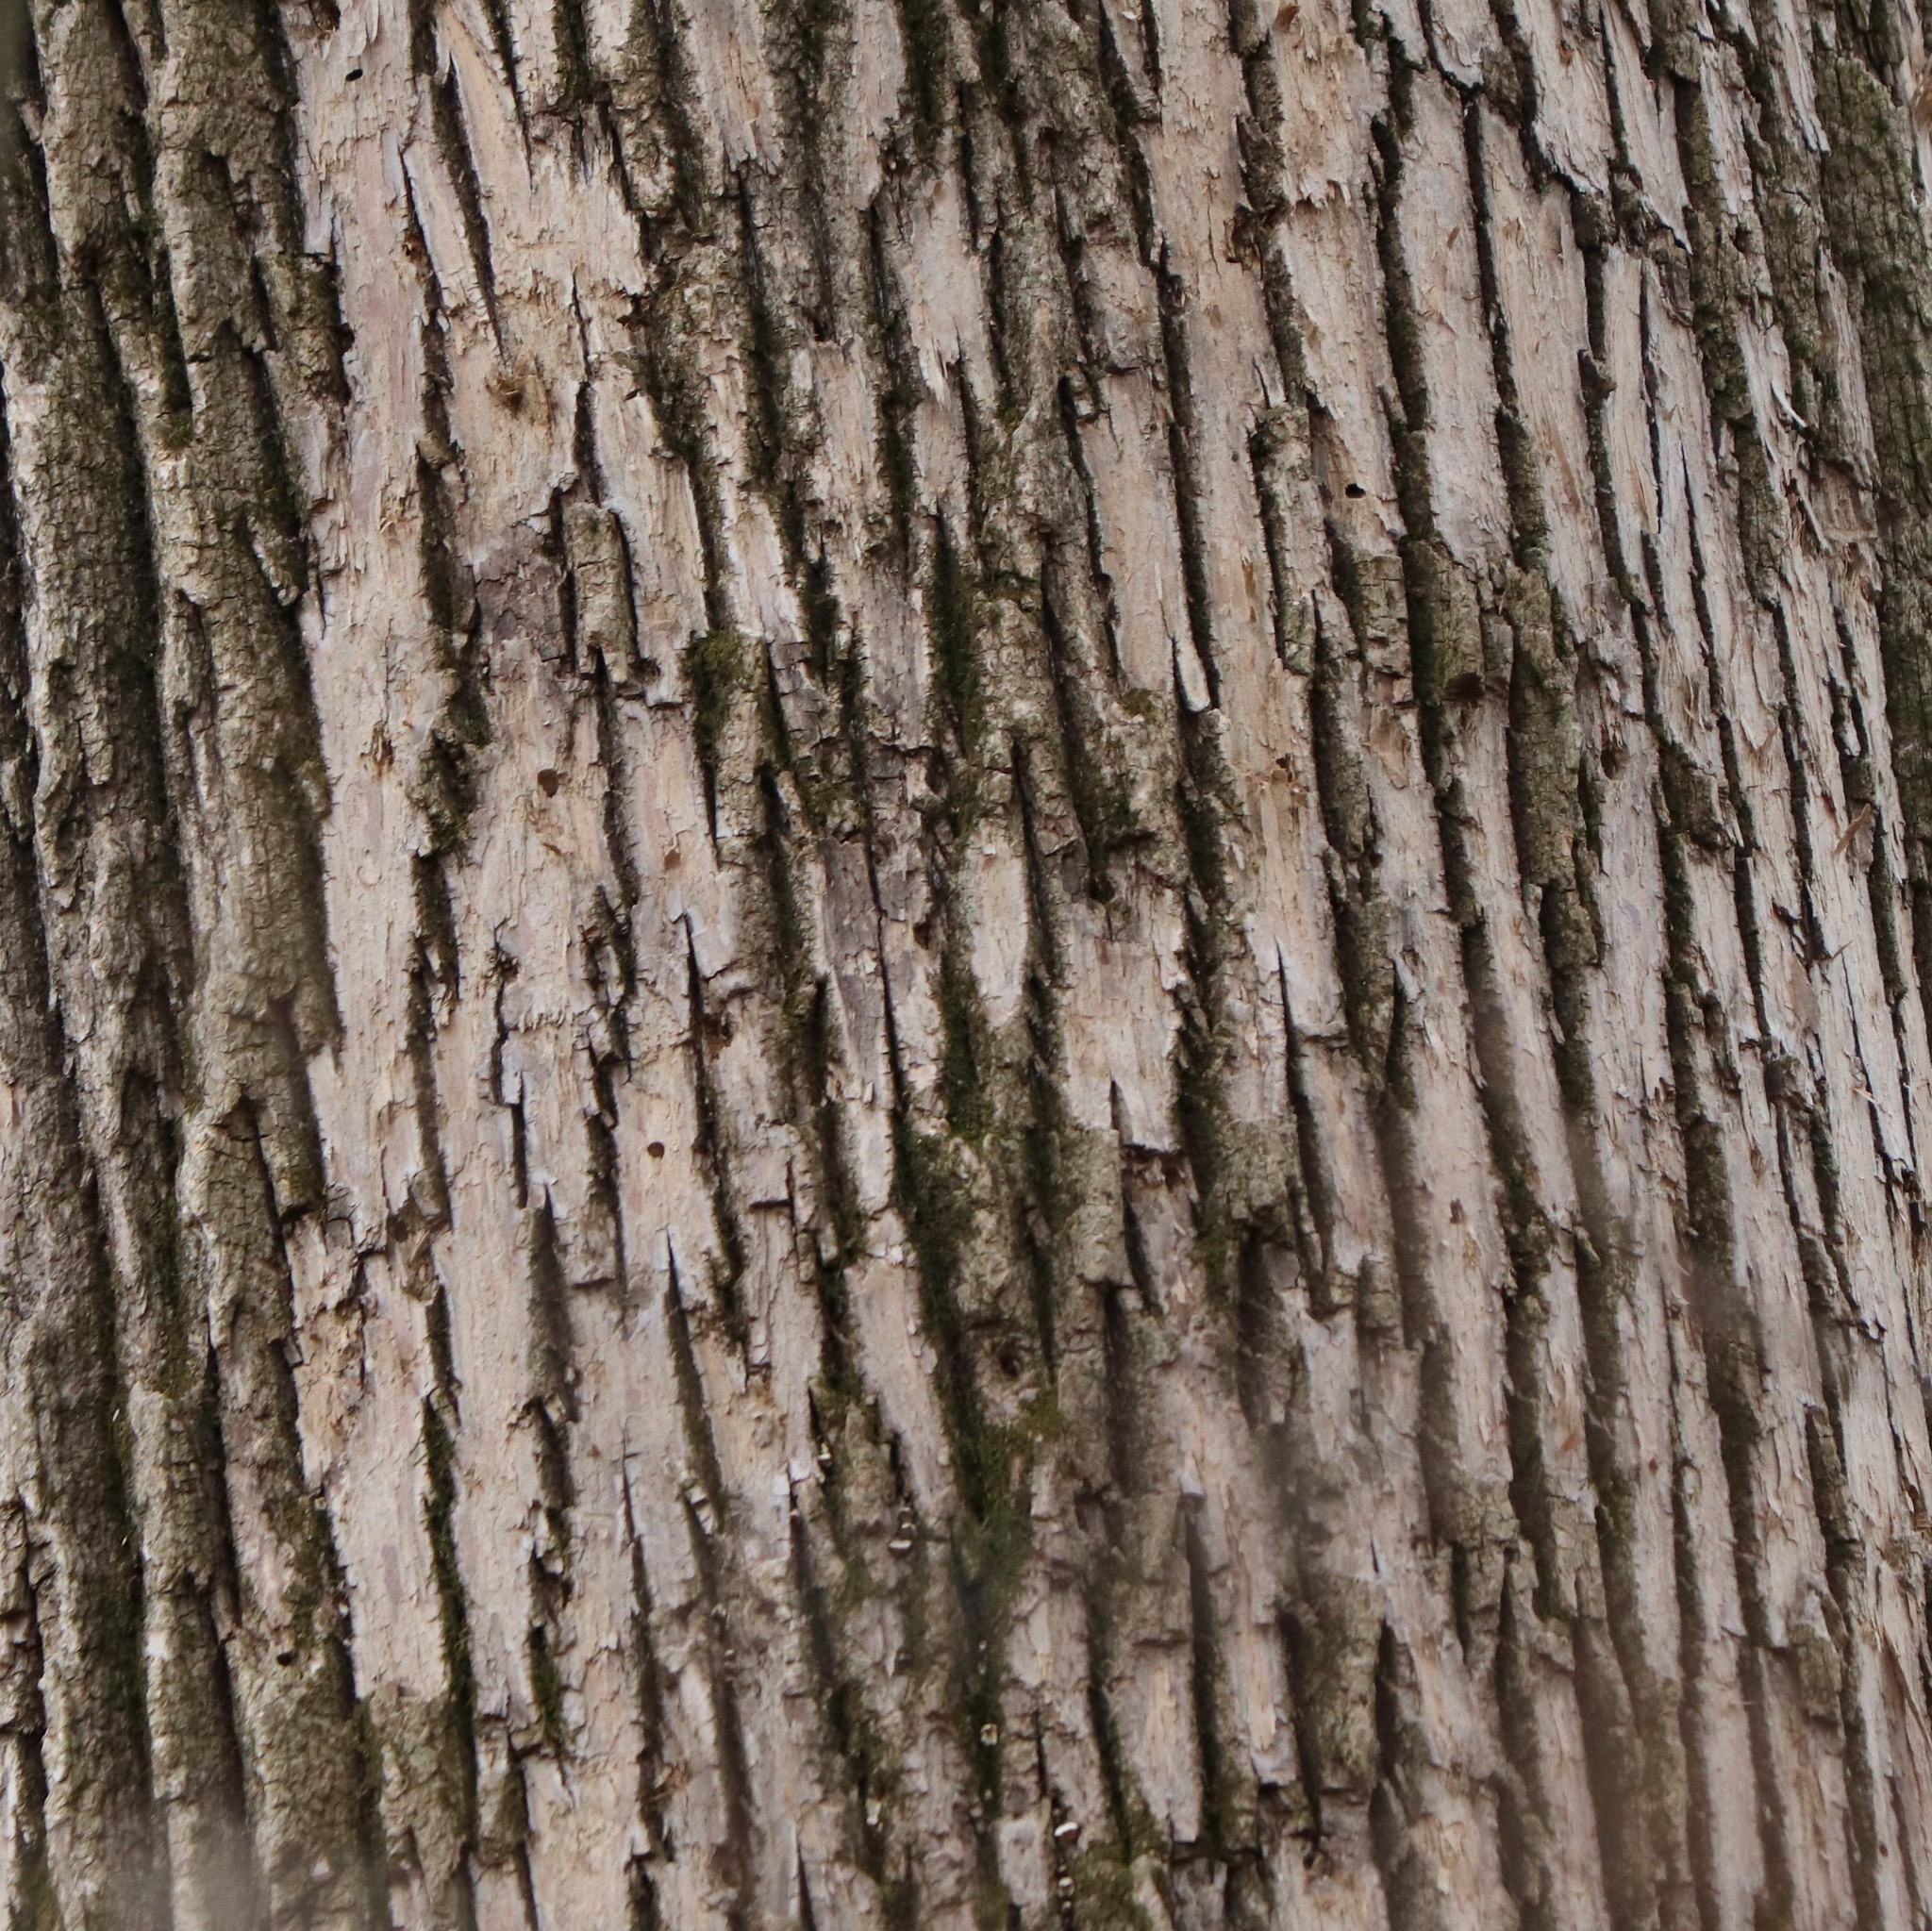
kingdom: Animalia
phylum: Arthropoda
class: Insecta
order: Coleoptera
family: Buprestidae
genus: Agrilus
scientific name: Agrilus planipennis
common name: Emerald ash borer
